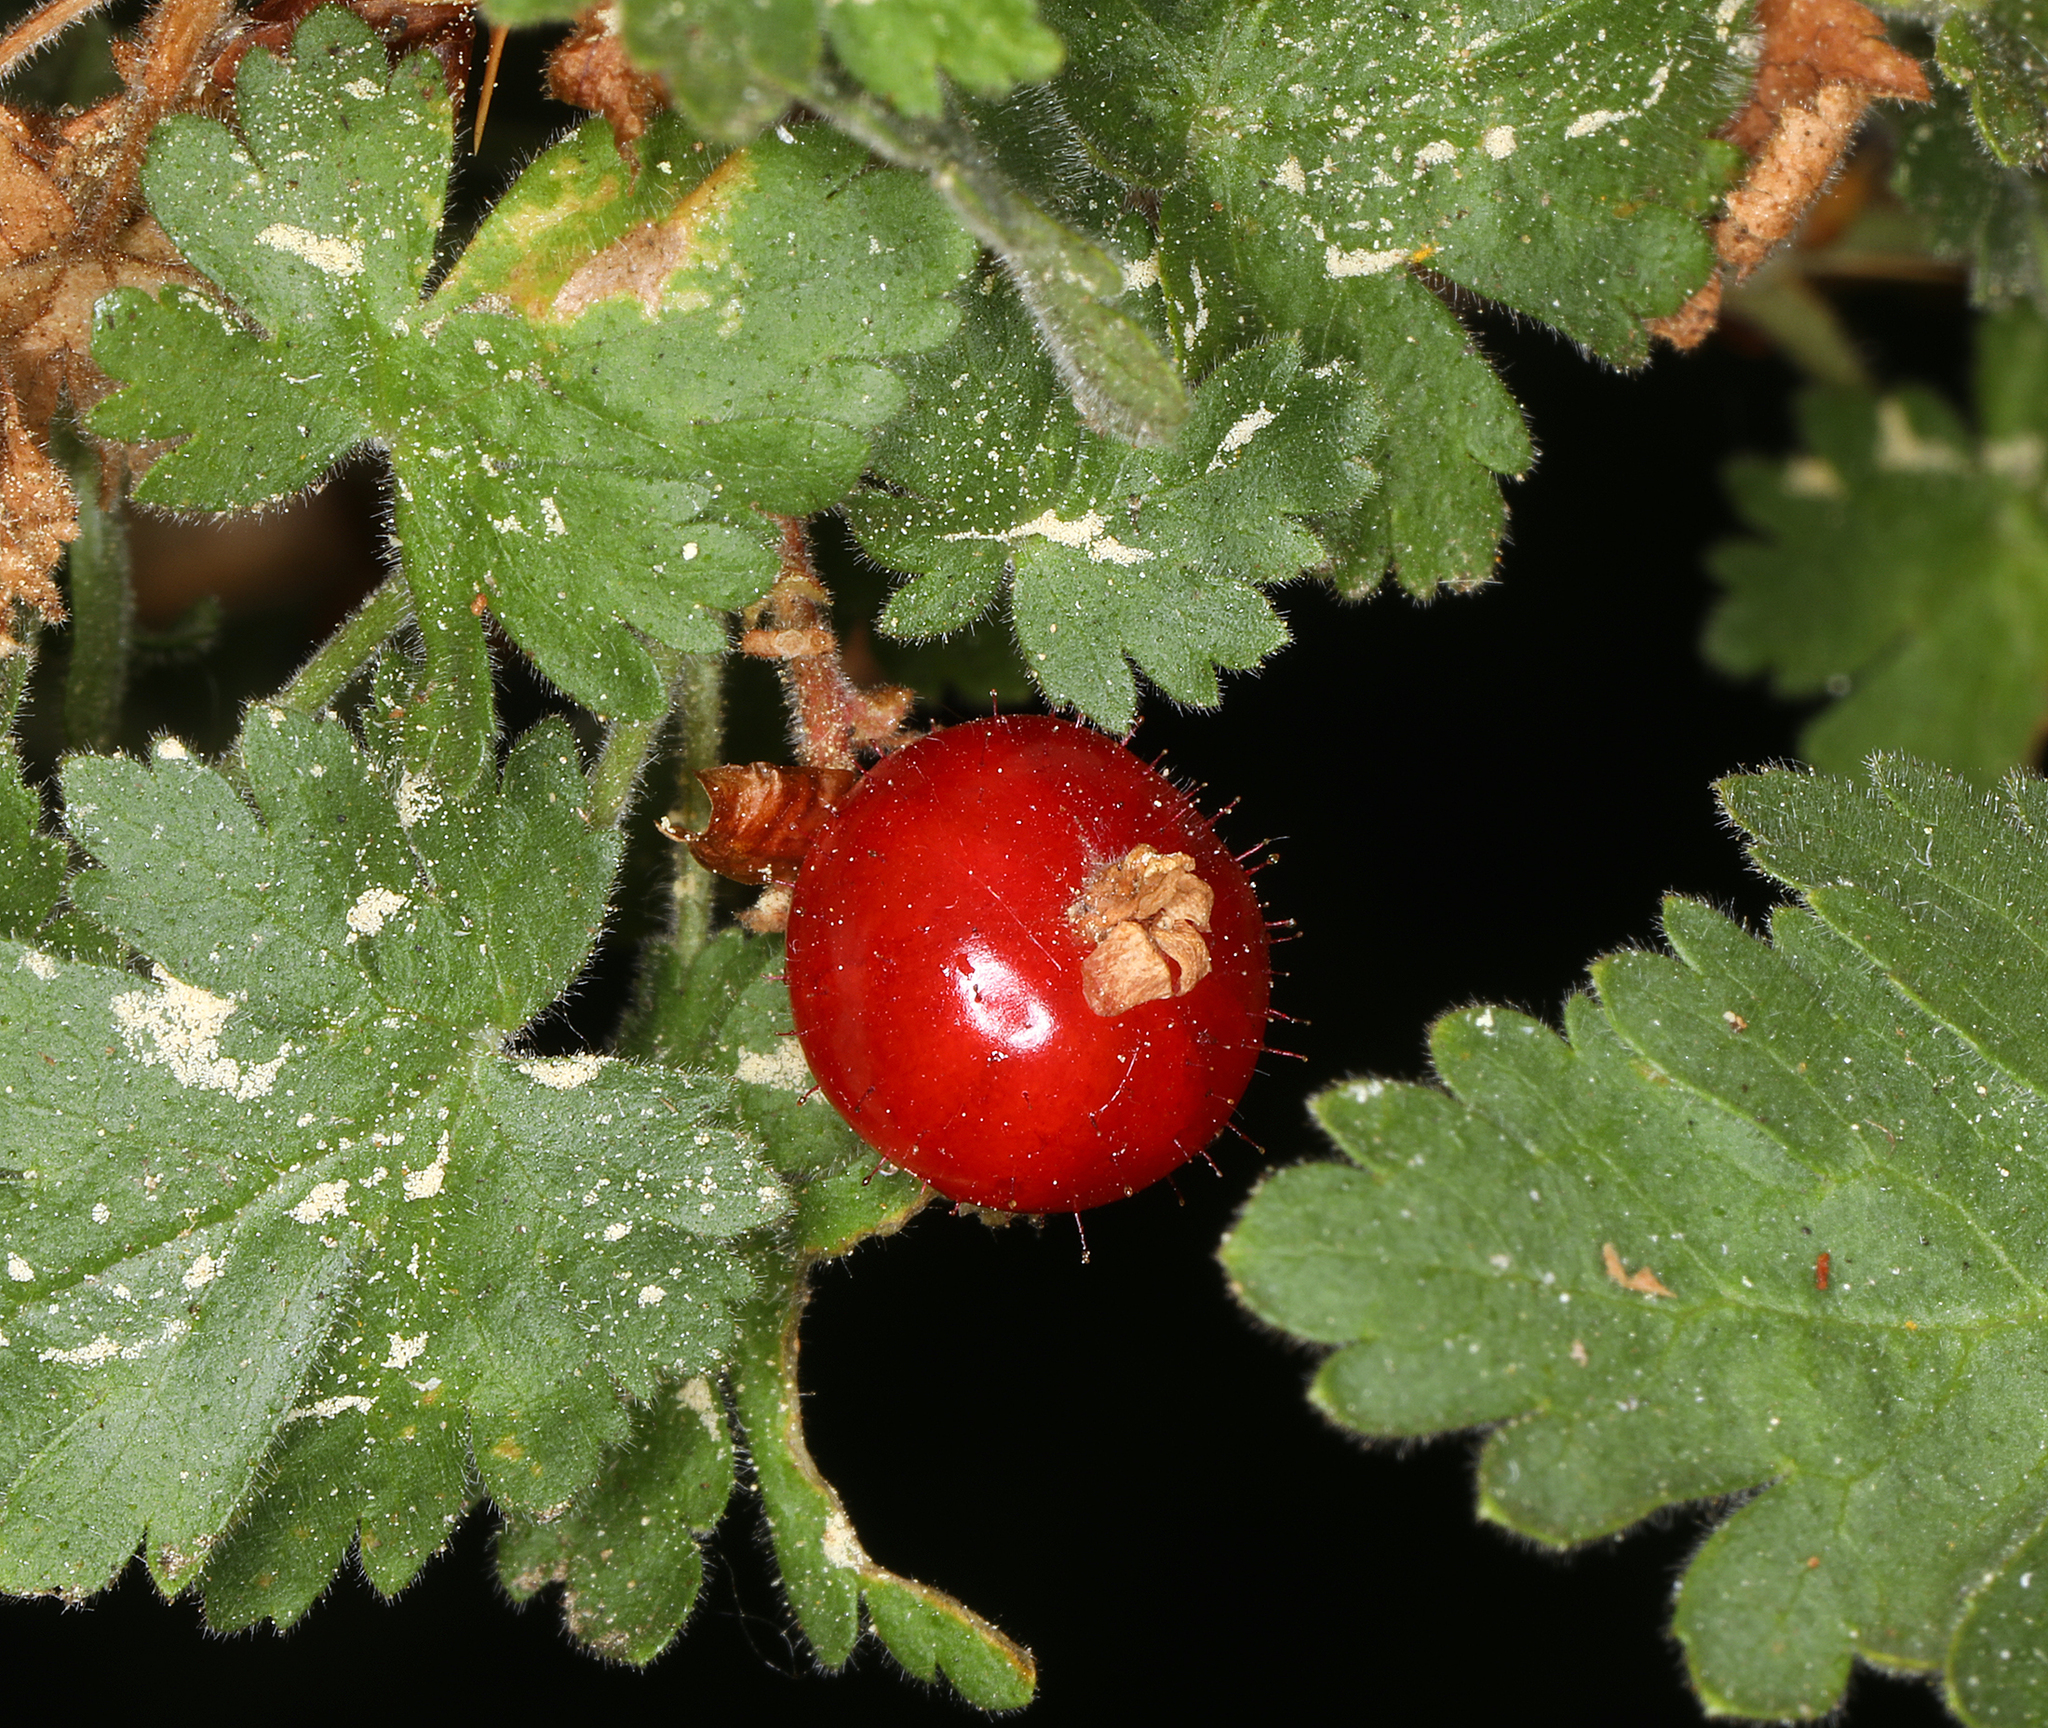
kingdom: Plantae
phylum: Tracheophyta
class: Magnoliopsida
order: Saxifragales
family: Grossulariaceae
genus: Ribes
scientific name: Ribes montigenum
